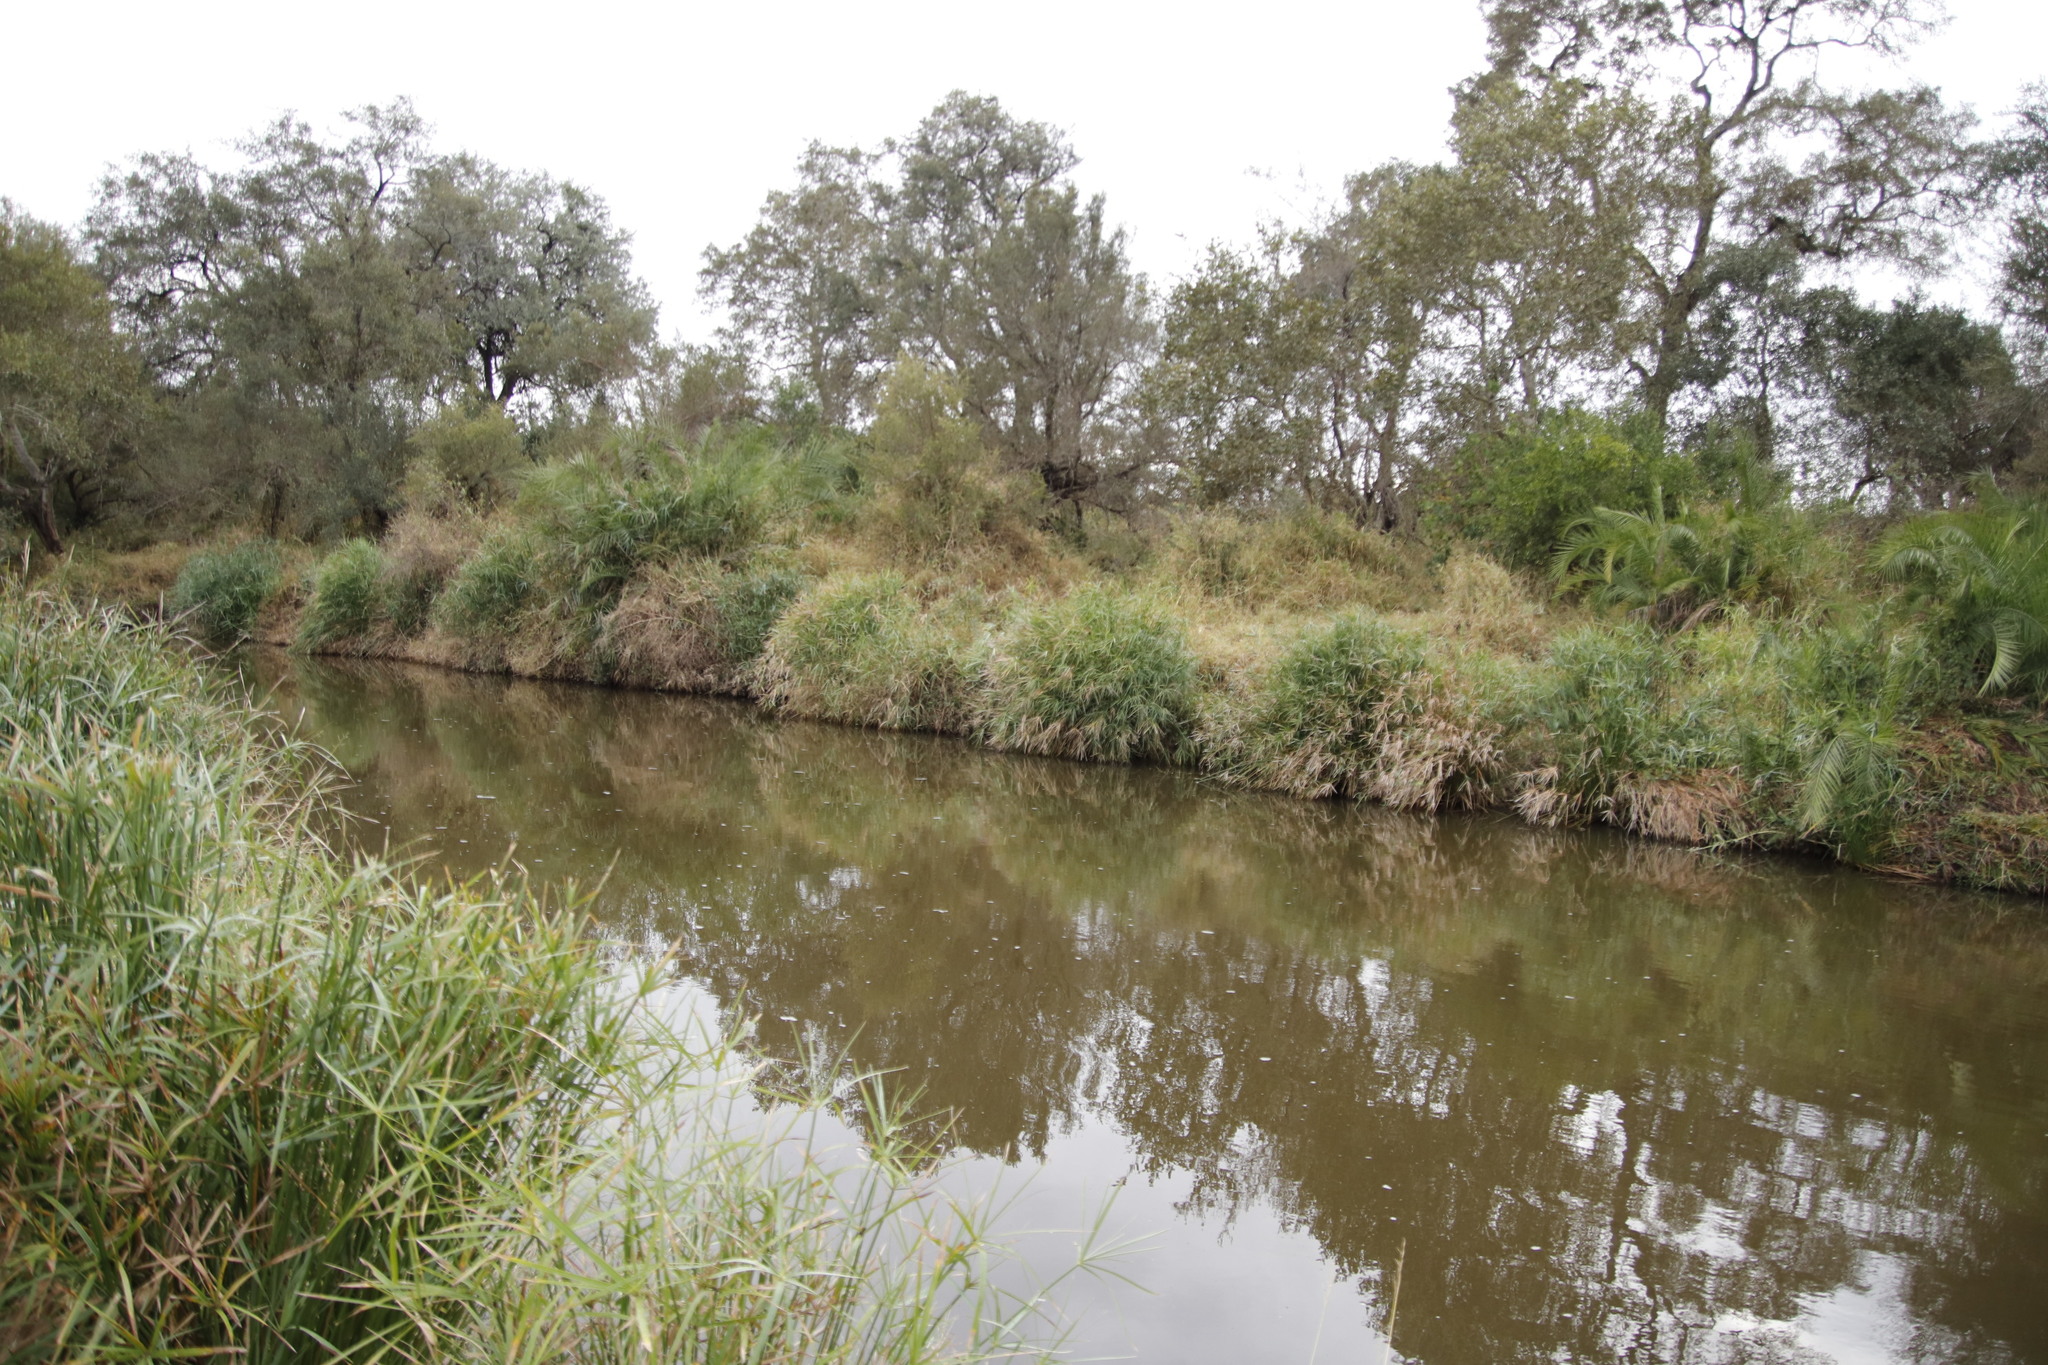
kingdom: Plantae
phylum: Tracheophyta
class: Liliopsida
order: Arecales
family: Arecaceae
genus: Phoenix
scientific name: Phoenix reclinata
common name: Senegal date palm
